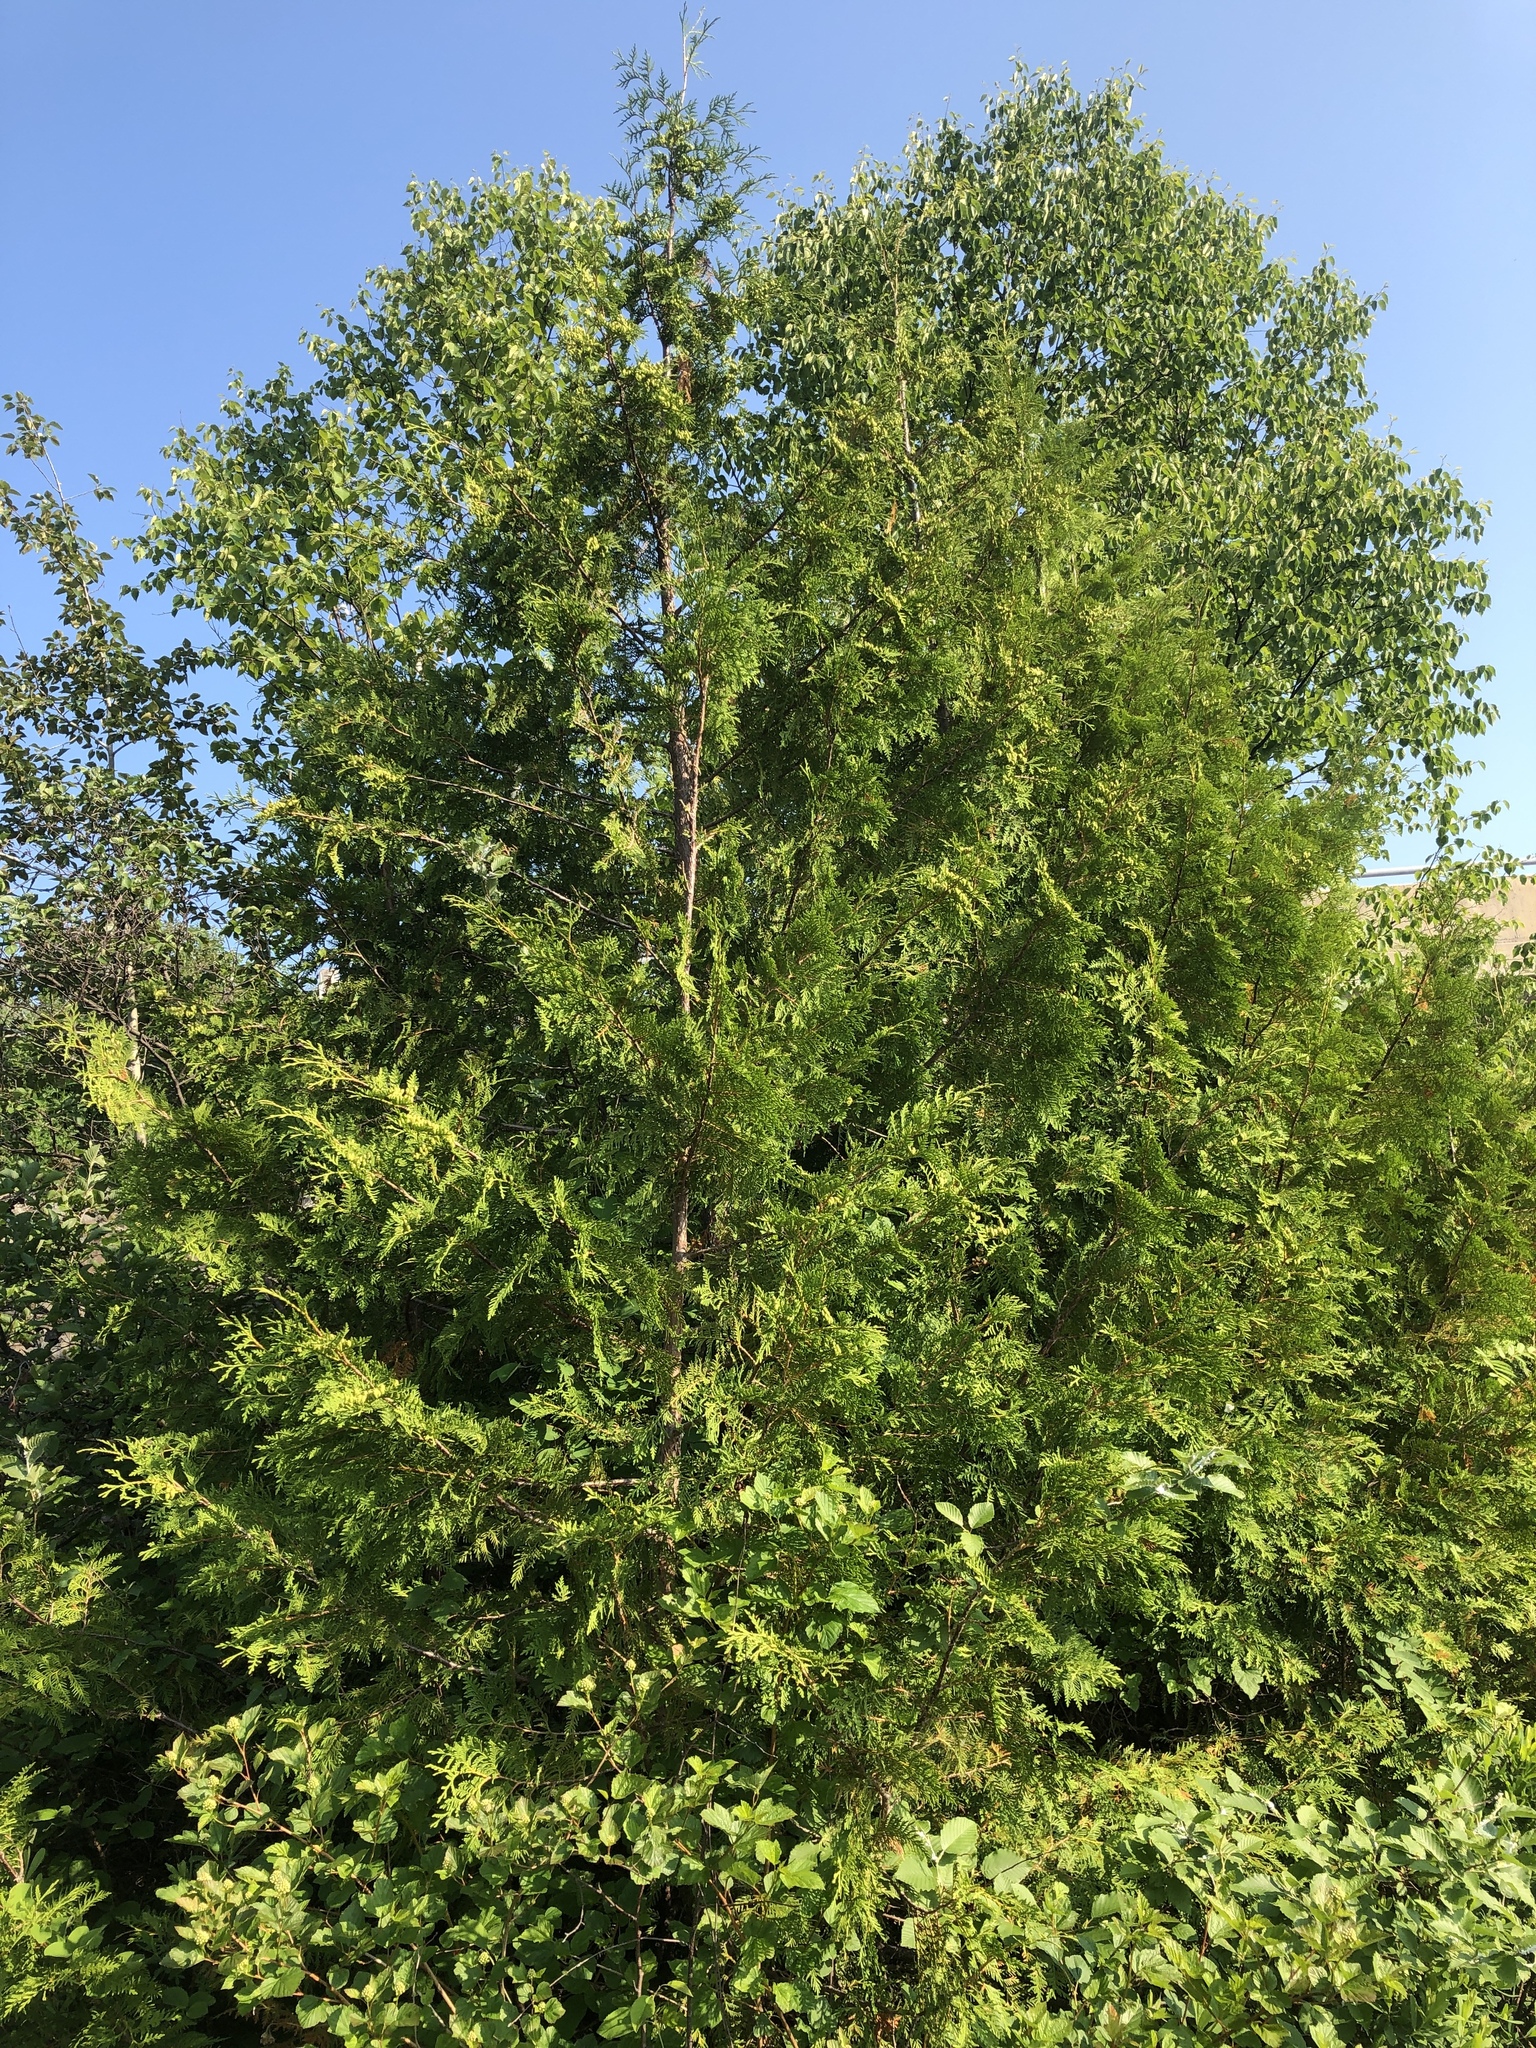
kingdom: Plantae
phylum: Tracheophyta
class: Pinopsida
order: Pinales
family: Cupressaceae
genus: Thuja
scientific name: Thuja occidentalis
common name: Northern white-cedar
